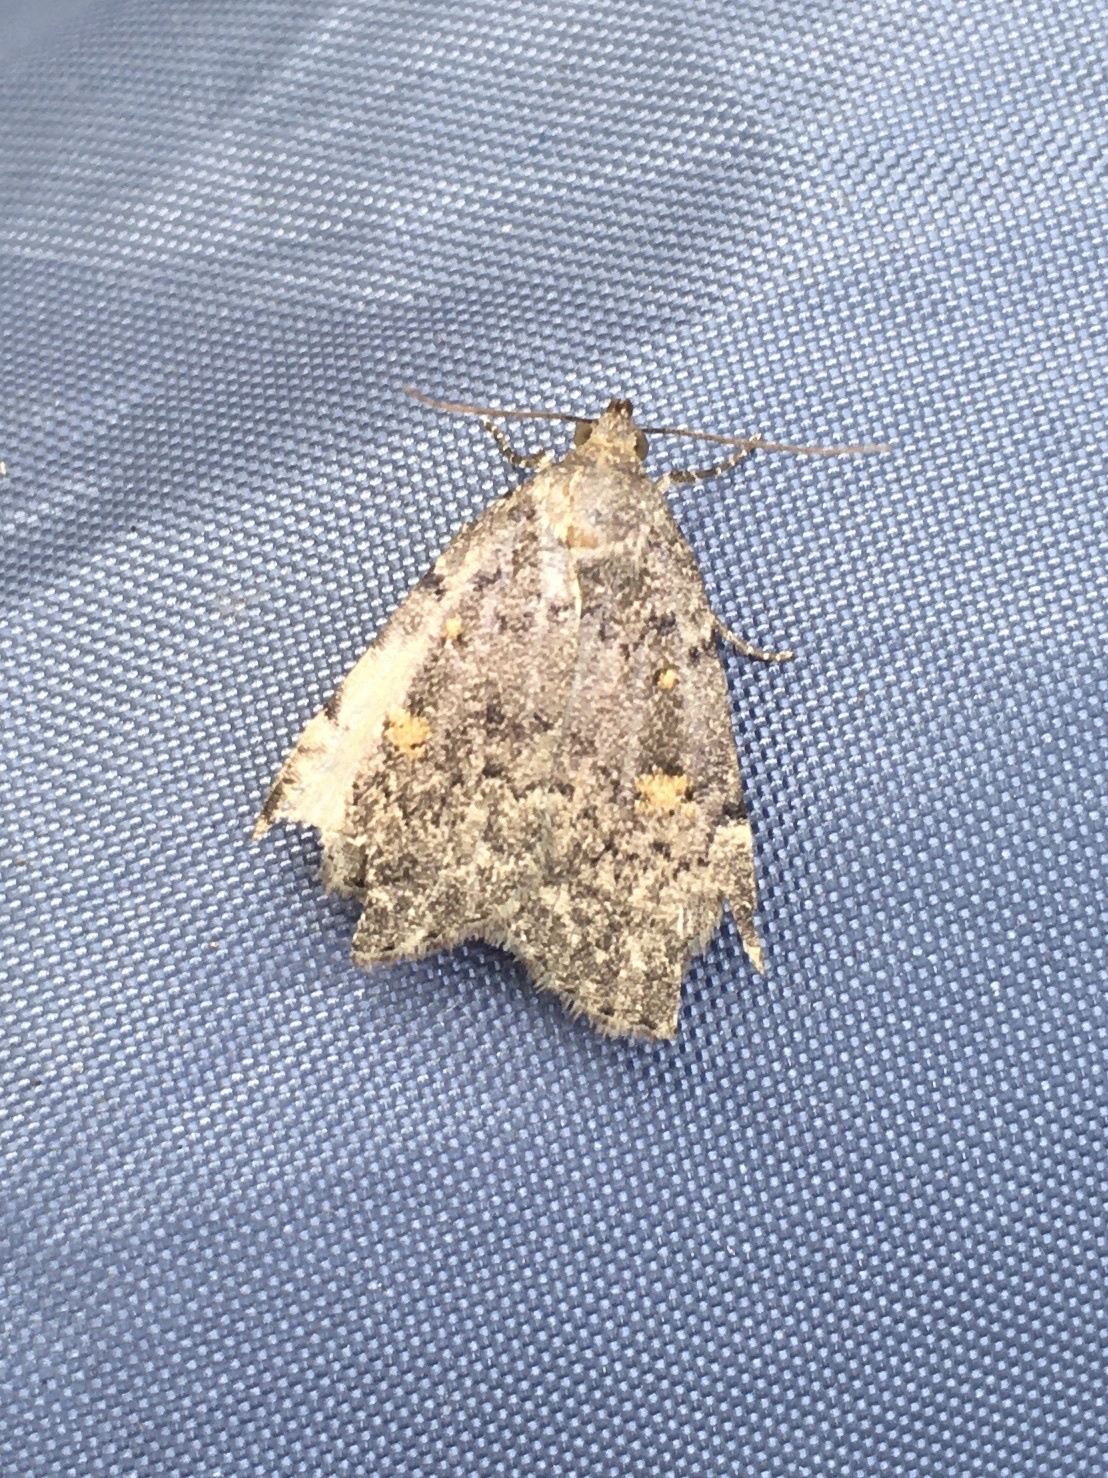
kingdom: Animalia
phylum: Arthropoda
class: Insecta
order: Lepidoptera
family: Erebidae
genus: Idia
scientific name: Idia aemula
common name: Common idia moth
